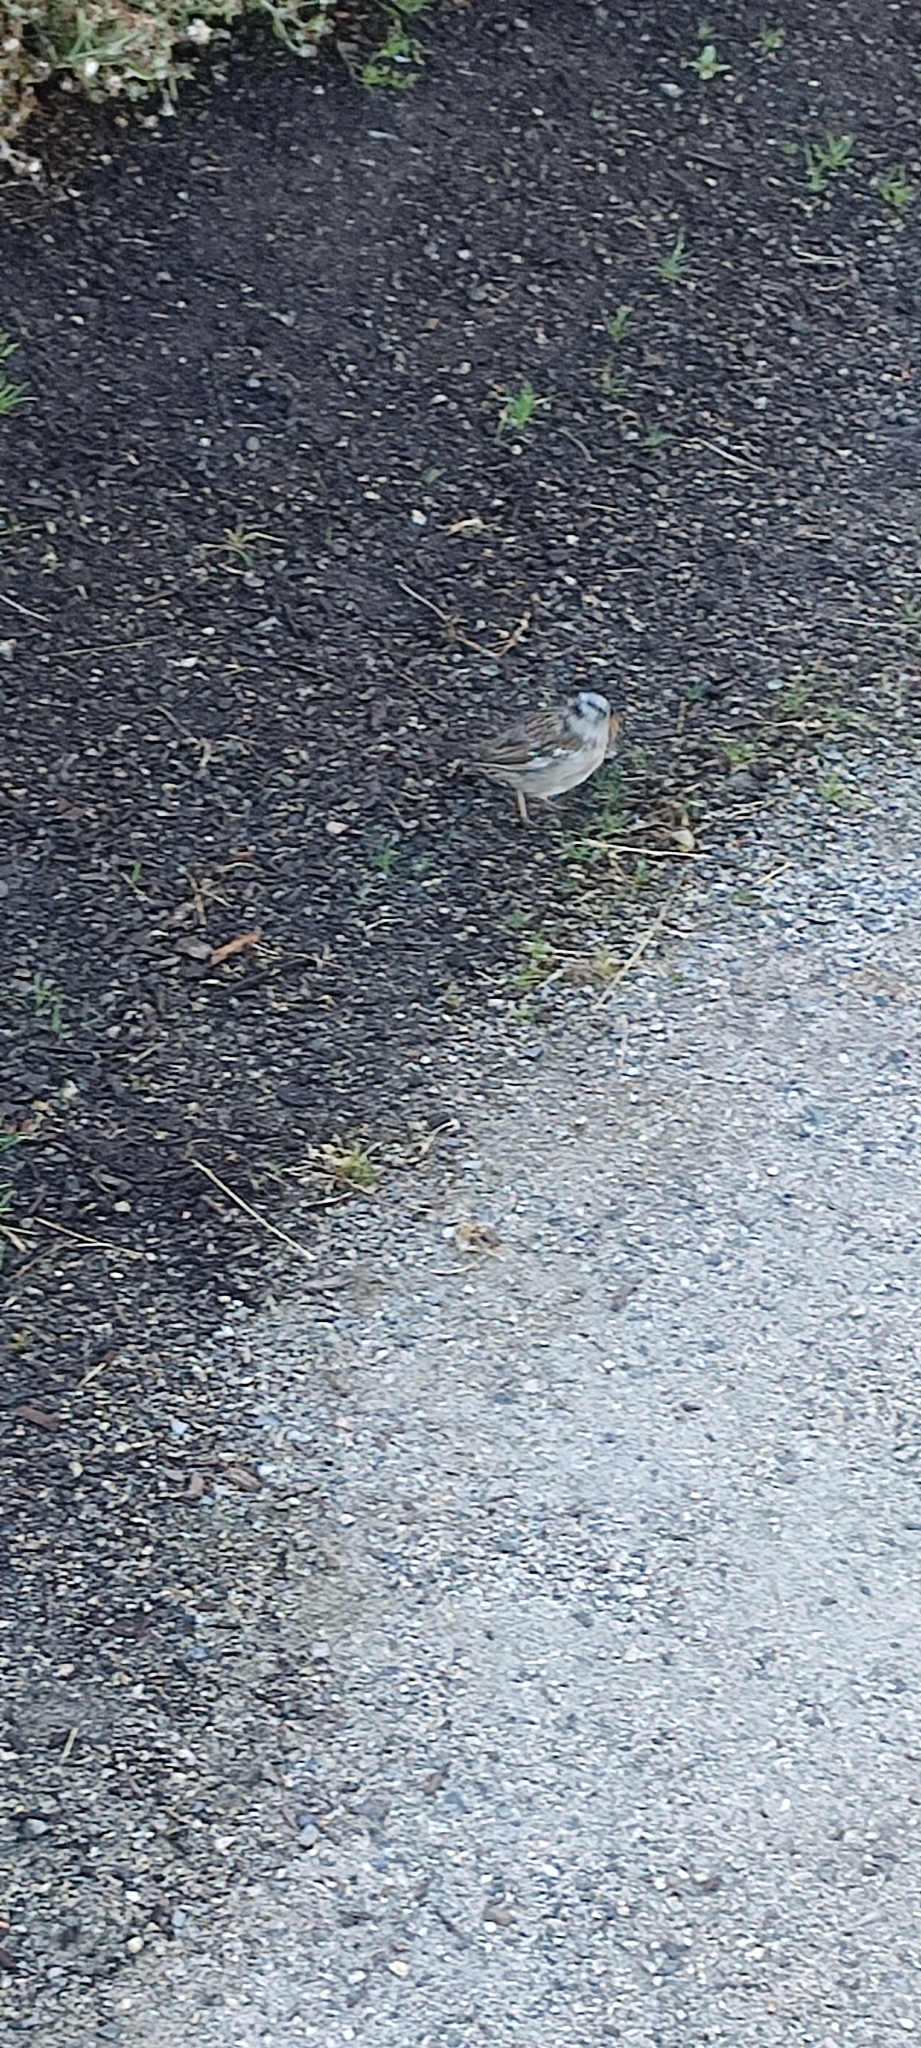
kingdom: Animalia
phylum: Chordata
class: Aves
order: Passeriformes
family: Passerellidae
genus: Zonotrichia
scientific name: Zonotrichia leucophrys
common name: White-crowned sparrow
